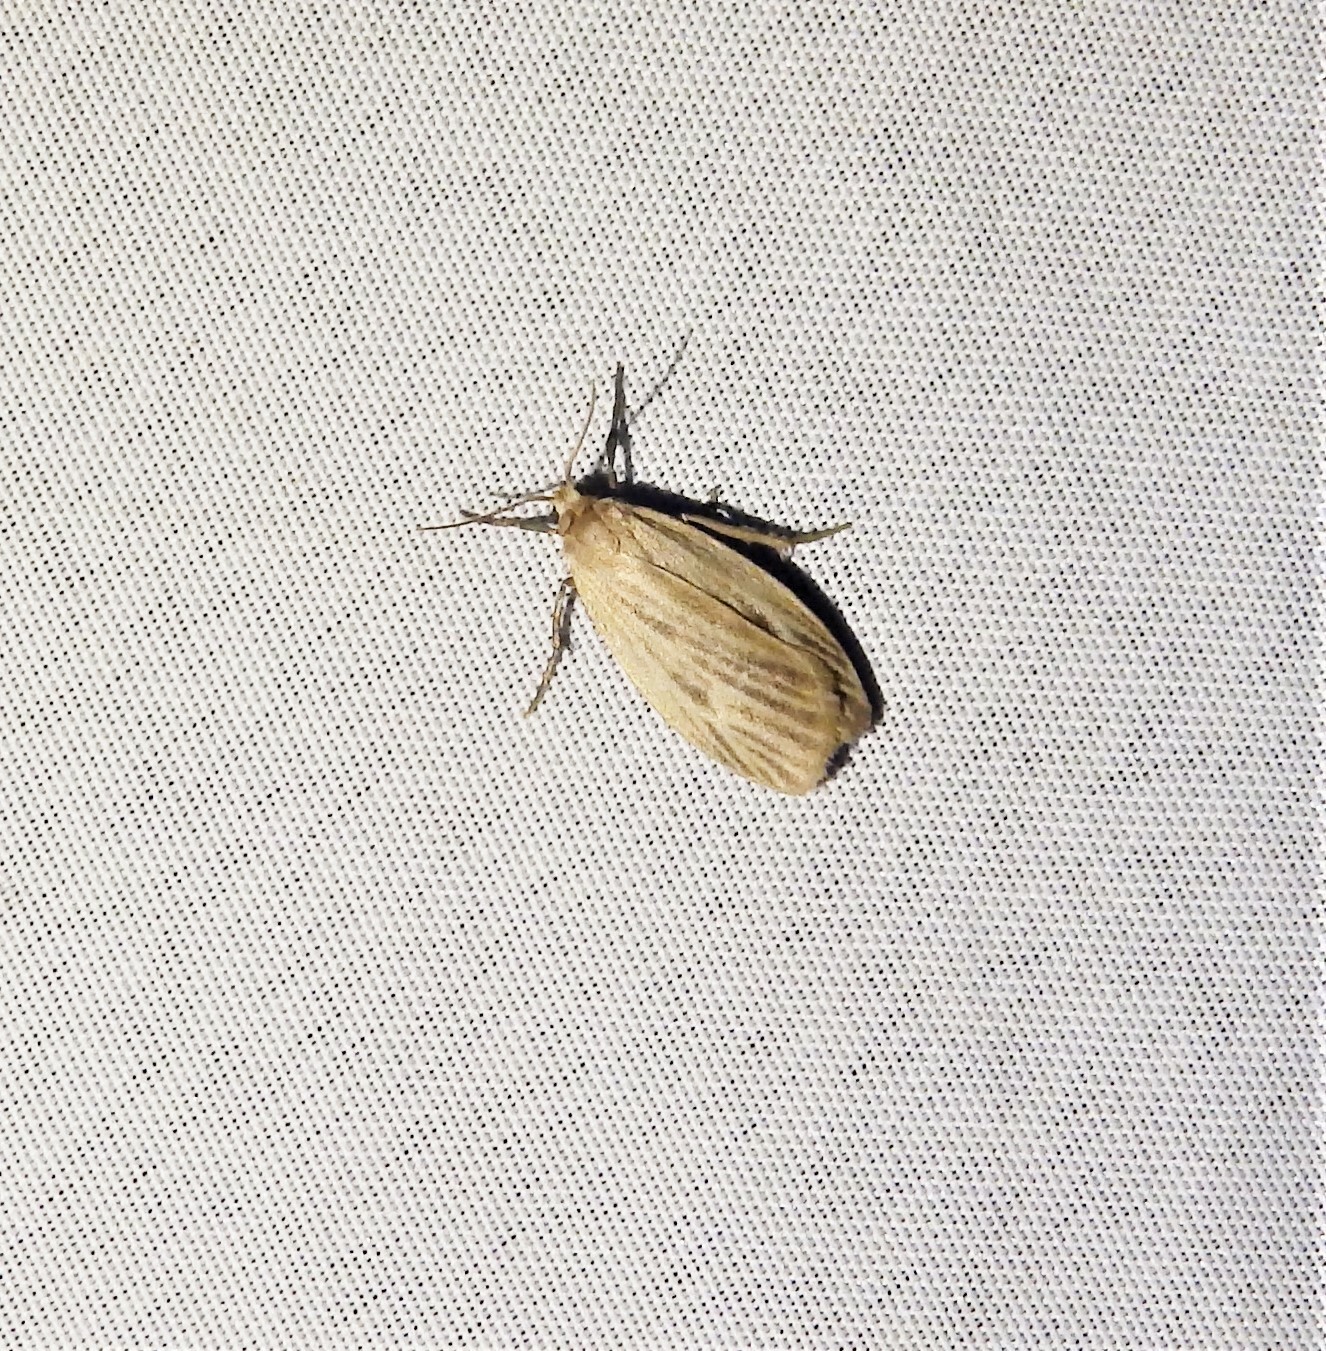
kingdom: Animalia
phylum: Arthropoda
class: Insecta
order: Lepidoptera
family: Erebidae
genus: Crambidia
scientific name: Crambidia pallida
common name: Pale lichen moth
